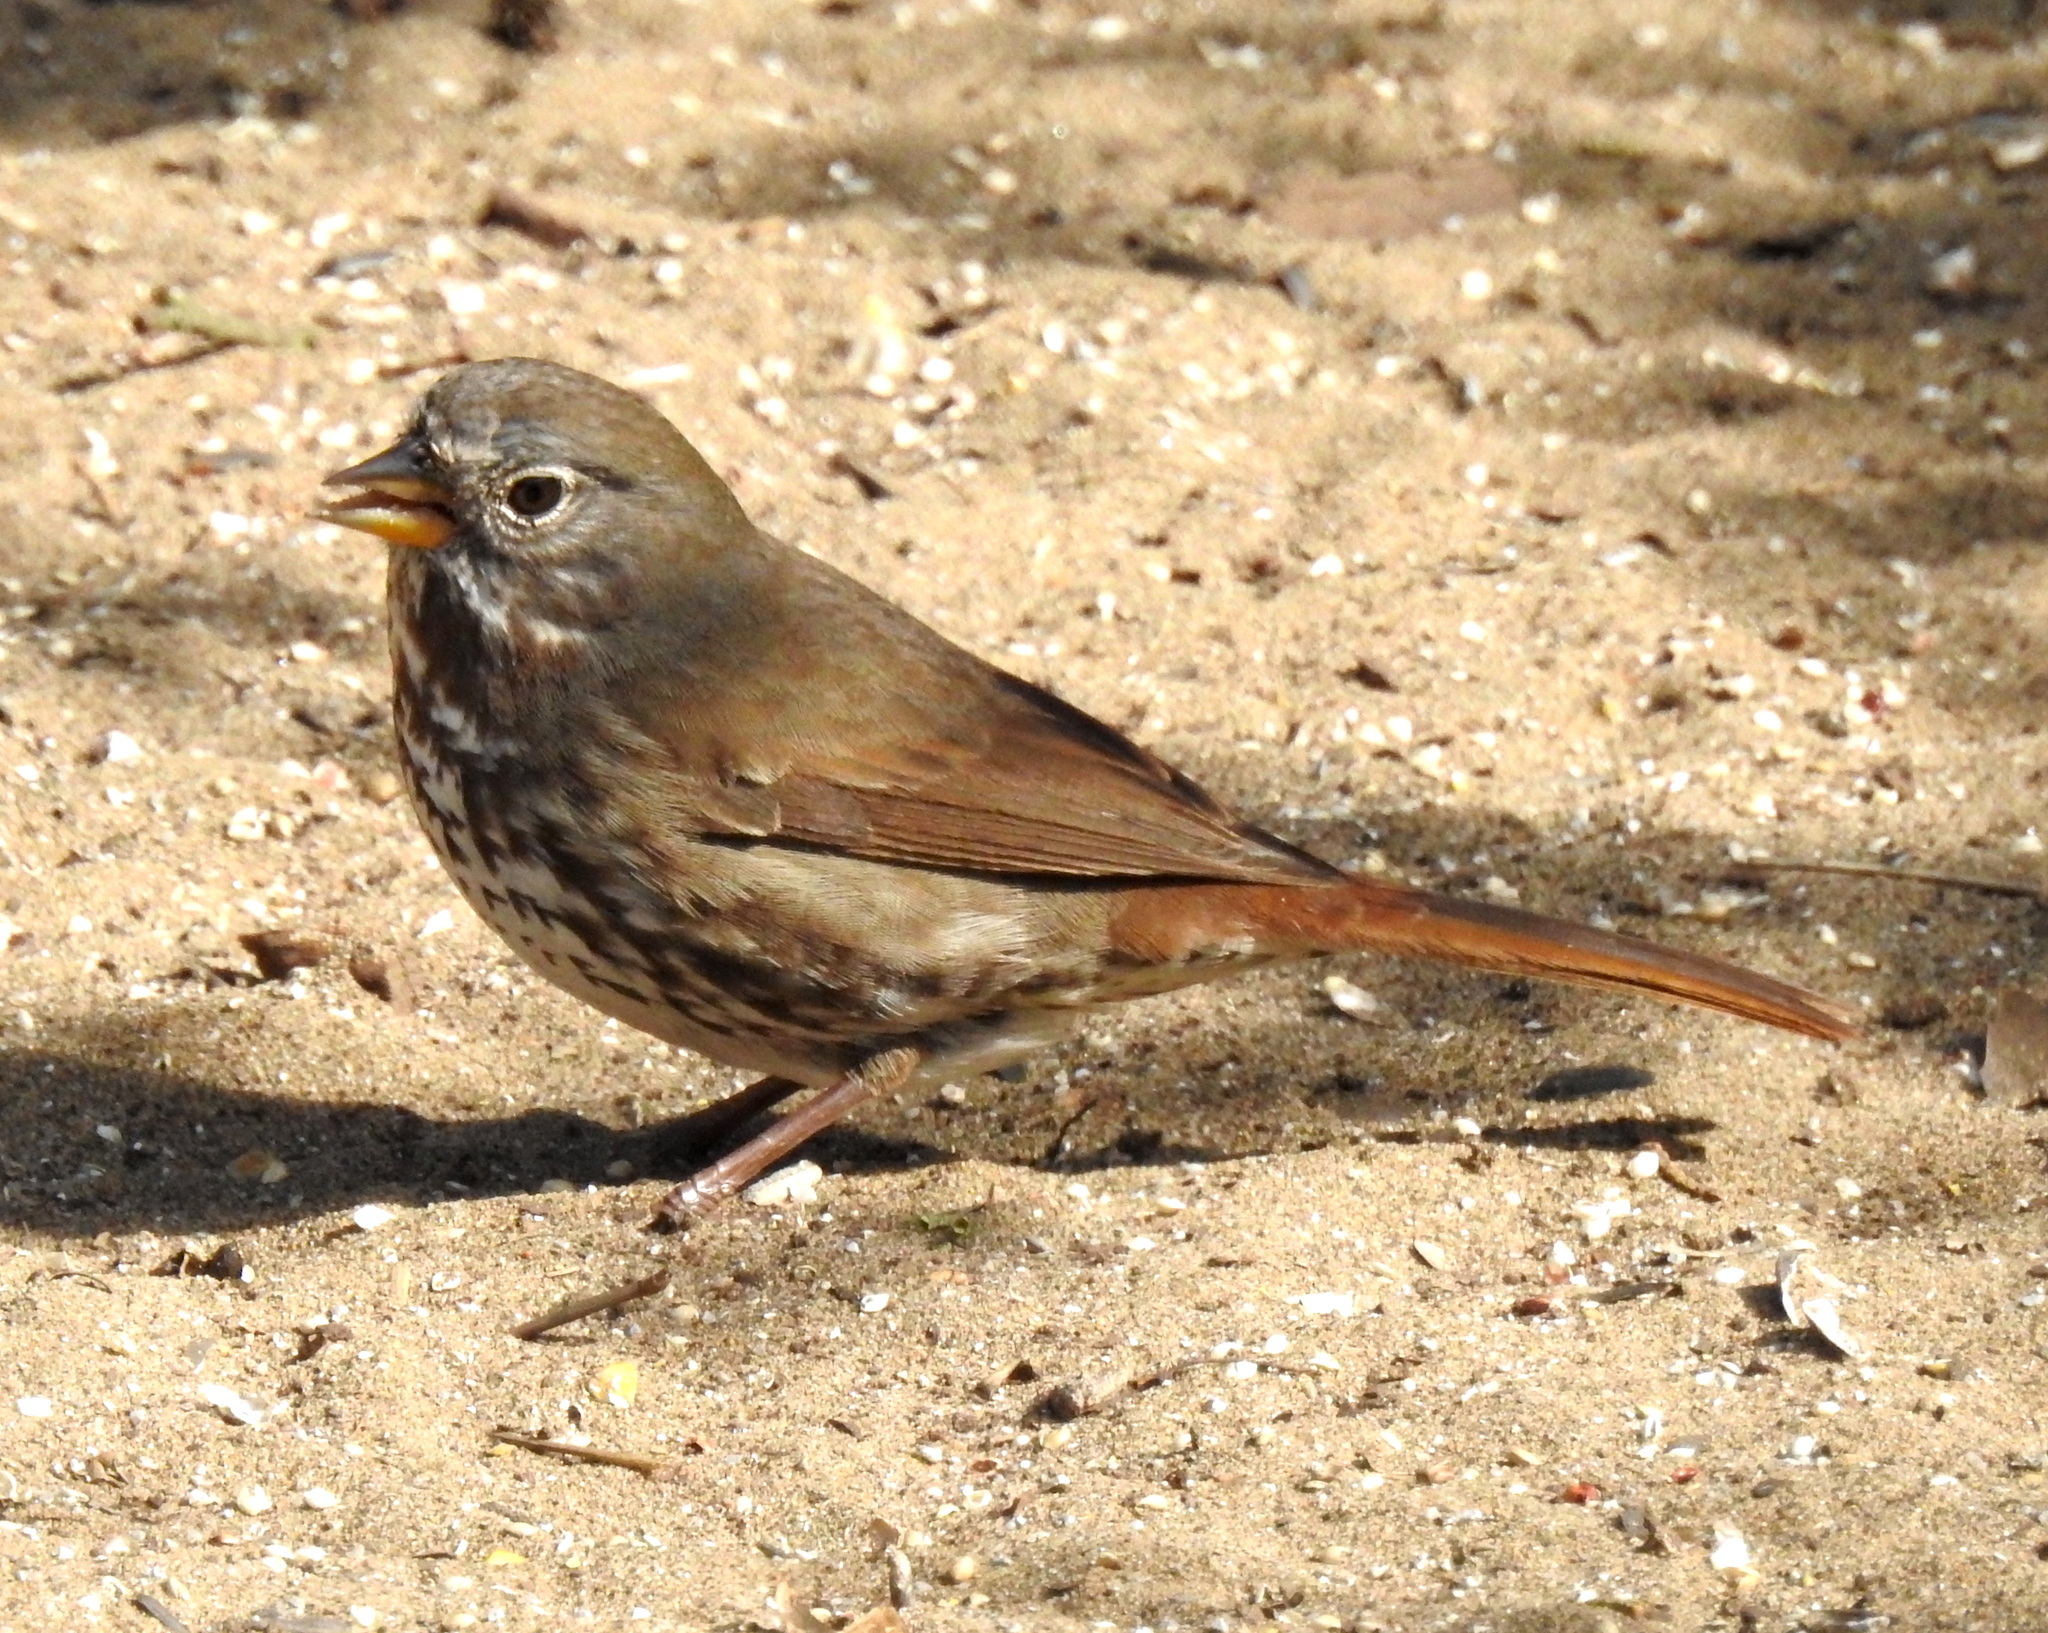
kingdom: Animalia
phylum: Chordata
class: Aves
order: Passeriformes
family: Passerellidae
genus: Passerella
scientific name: Passerella iliaca
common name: Fox sparrow
